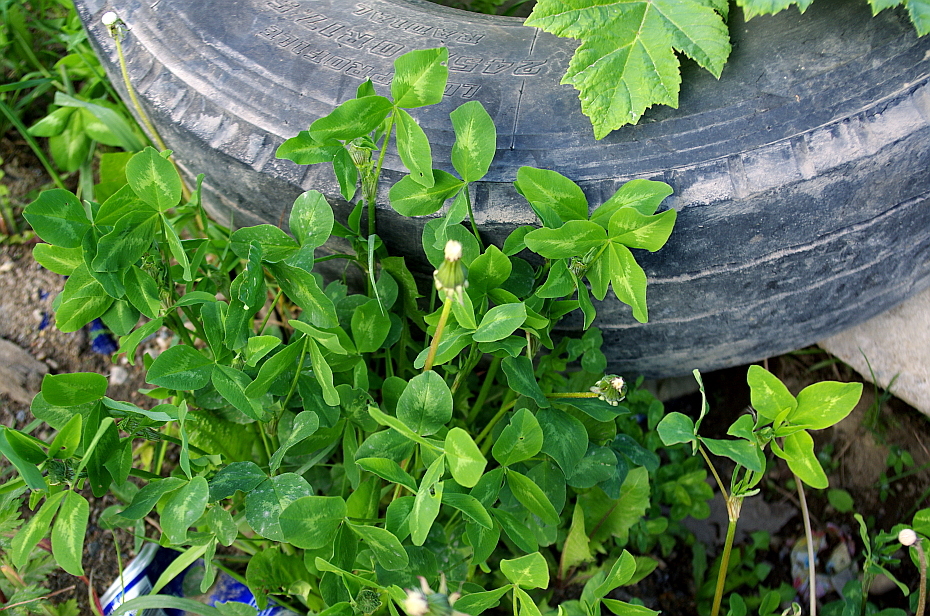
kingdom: Plantae
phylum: Tracheophyta
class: Magnoliopsida
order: Fabales
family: Fabaceae
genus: Trifolium
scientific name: Trifolium pratense
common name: Red clover
